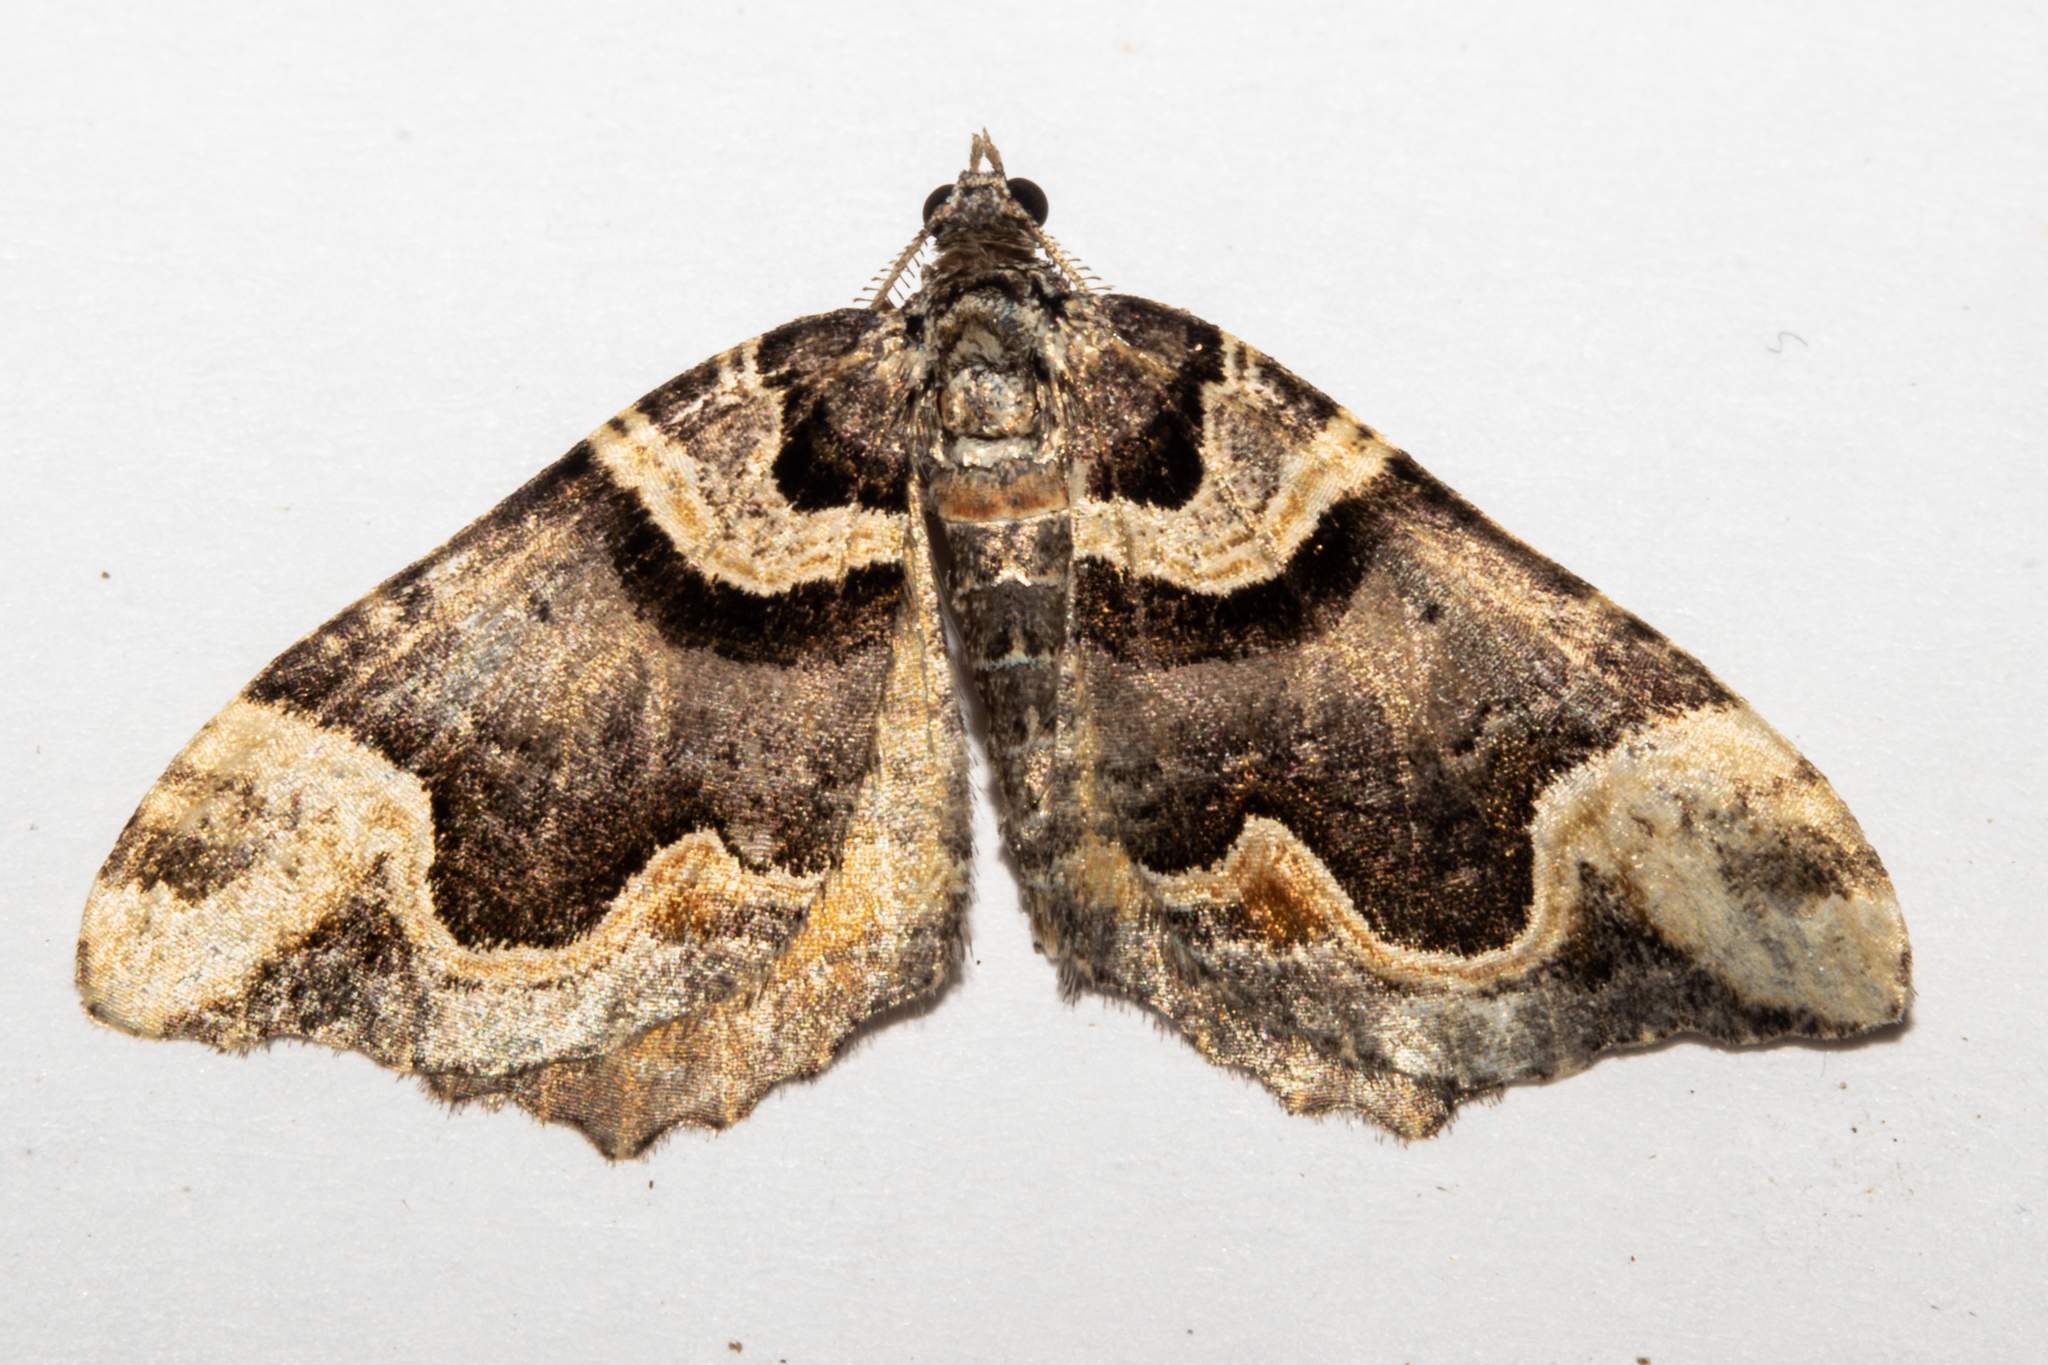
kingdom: Animalia
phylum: Arthropoda
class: Insecta
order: Lepidoptera
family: Geometridae
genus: Asaphodes
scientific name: Asaphodes chlamydota
